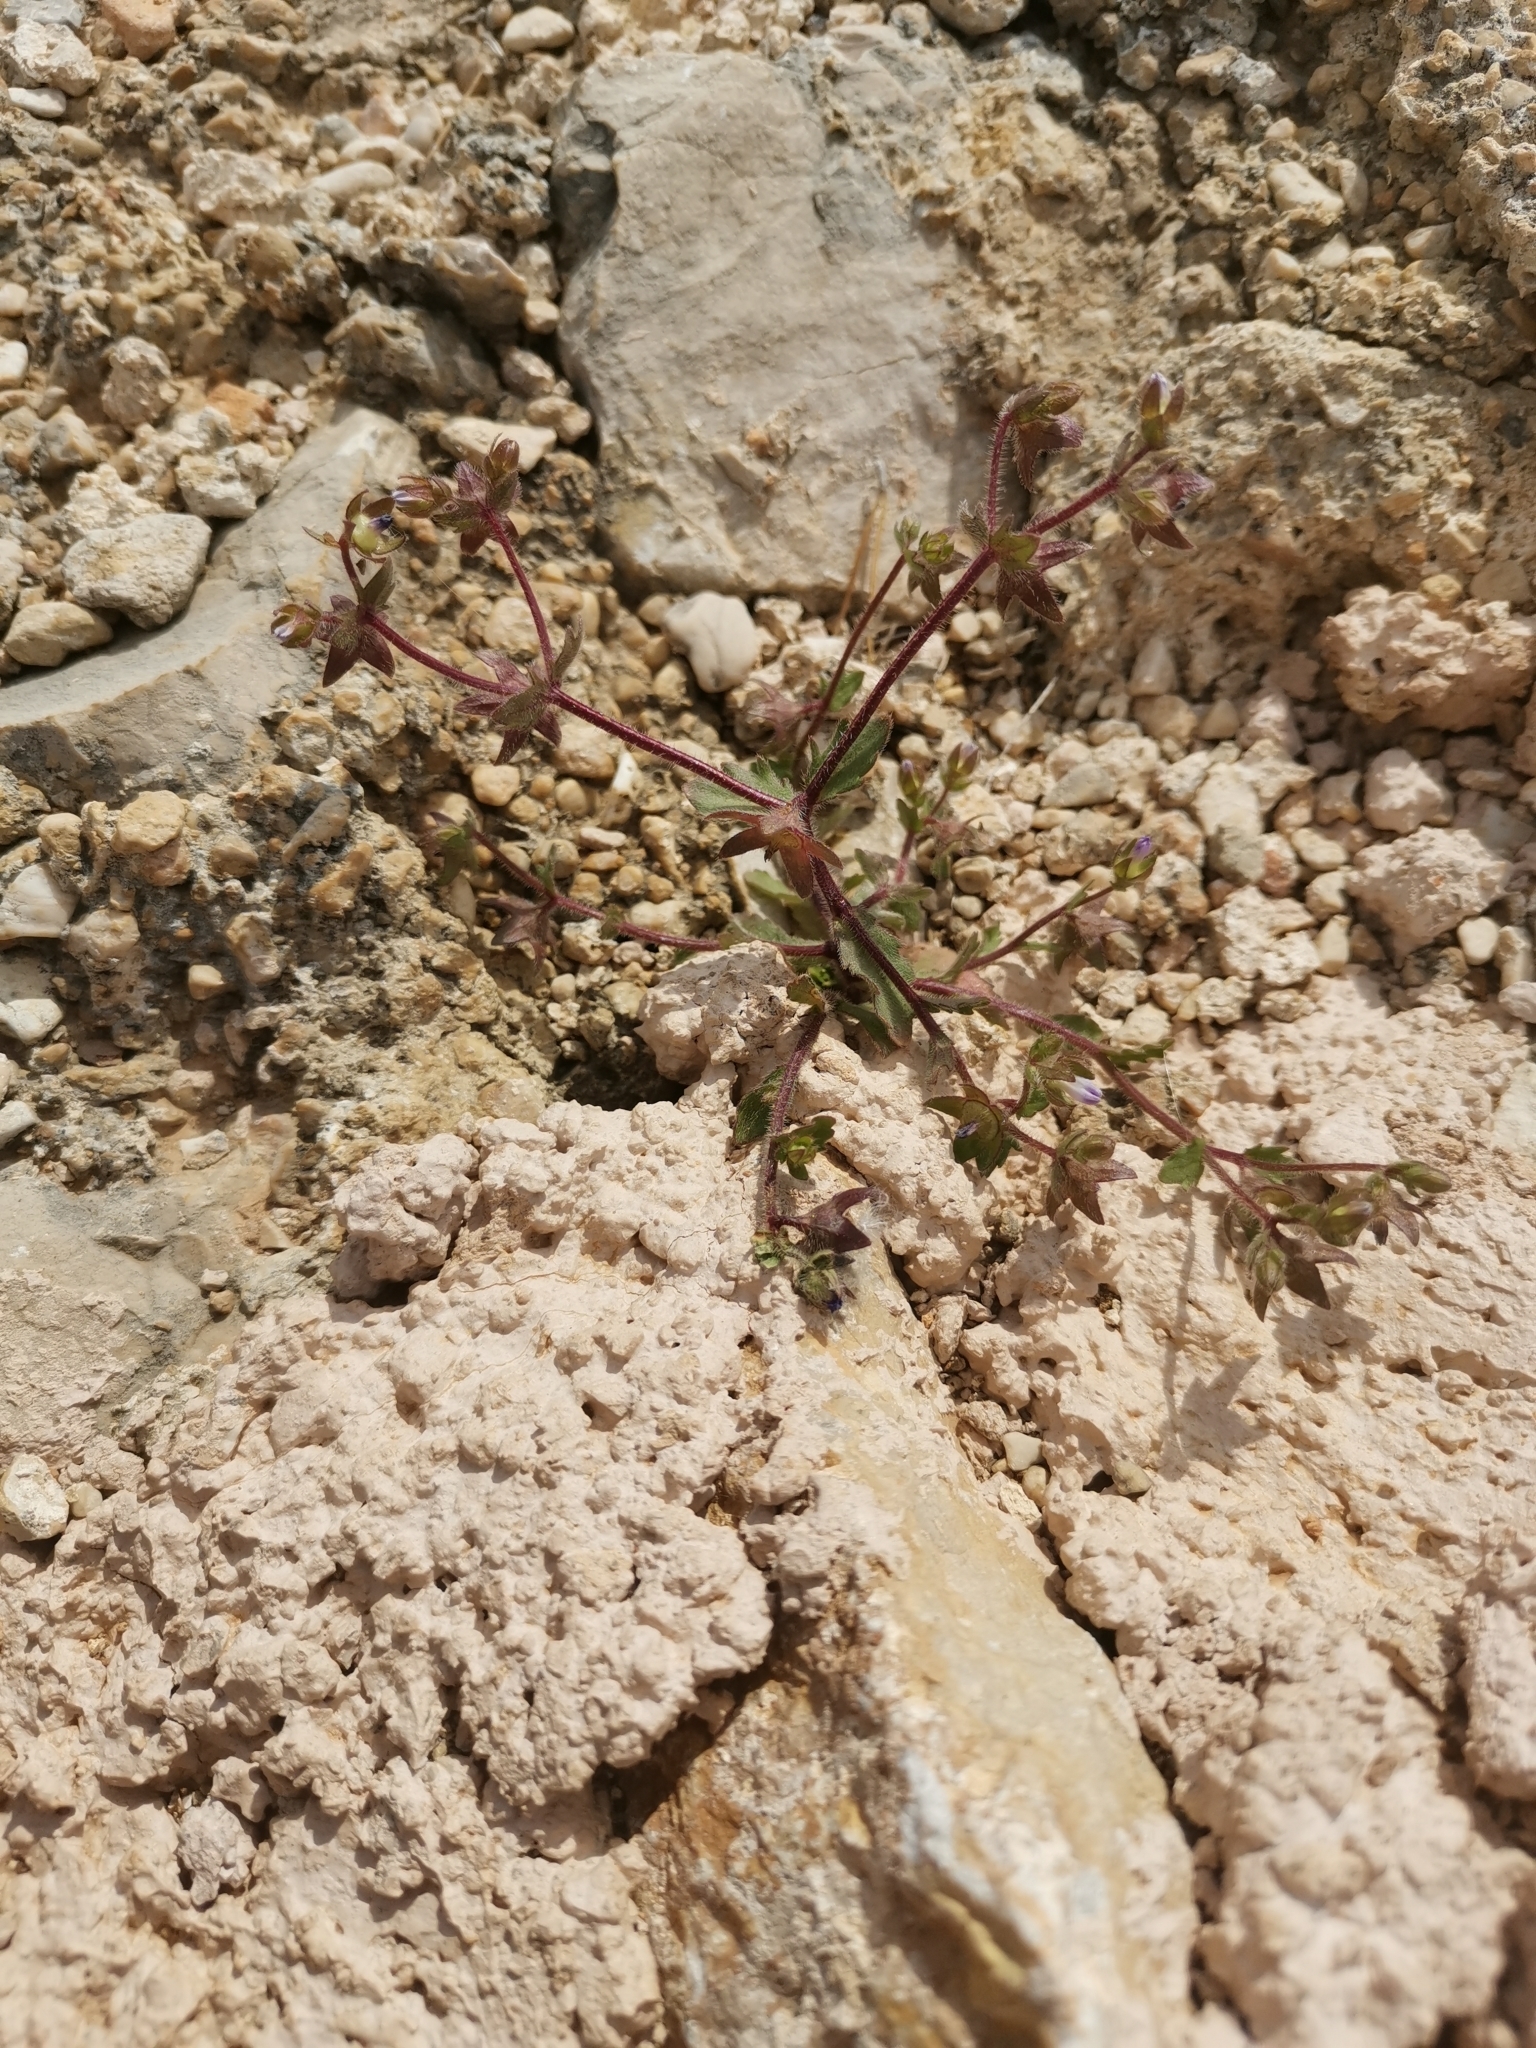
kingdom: Plantae
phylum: Tracheophyta
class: Magnoliopsida
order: Asterales
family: Campanulaceae
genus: Campanula
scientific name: Campanula erinus
